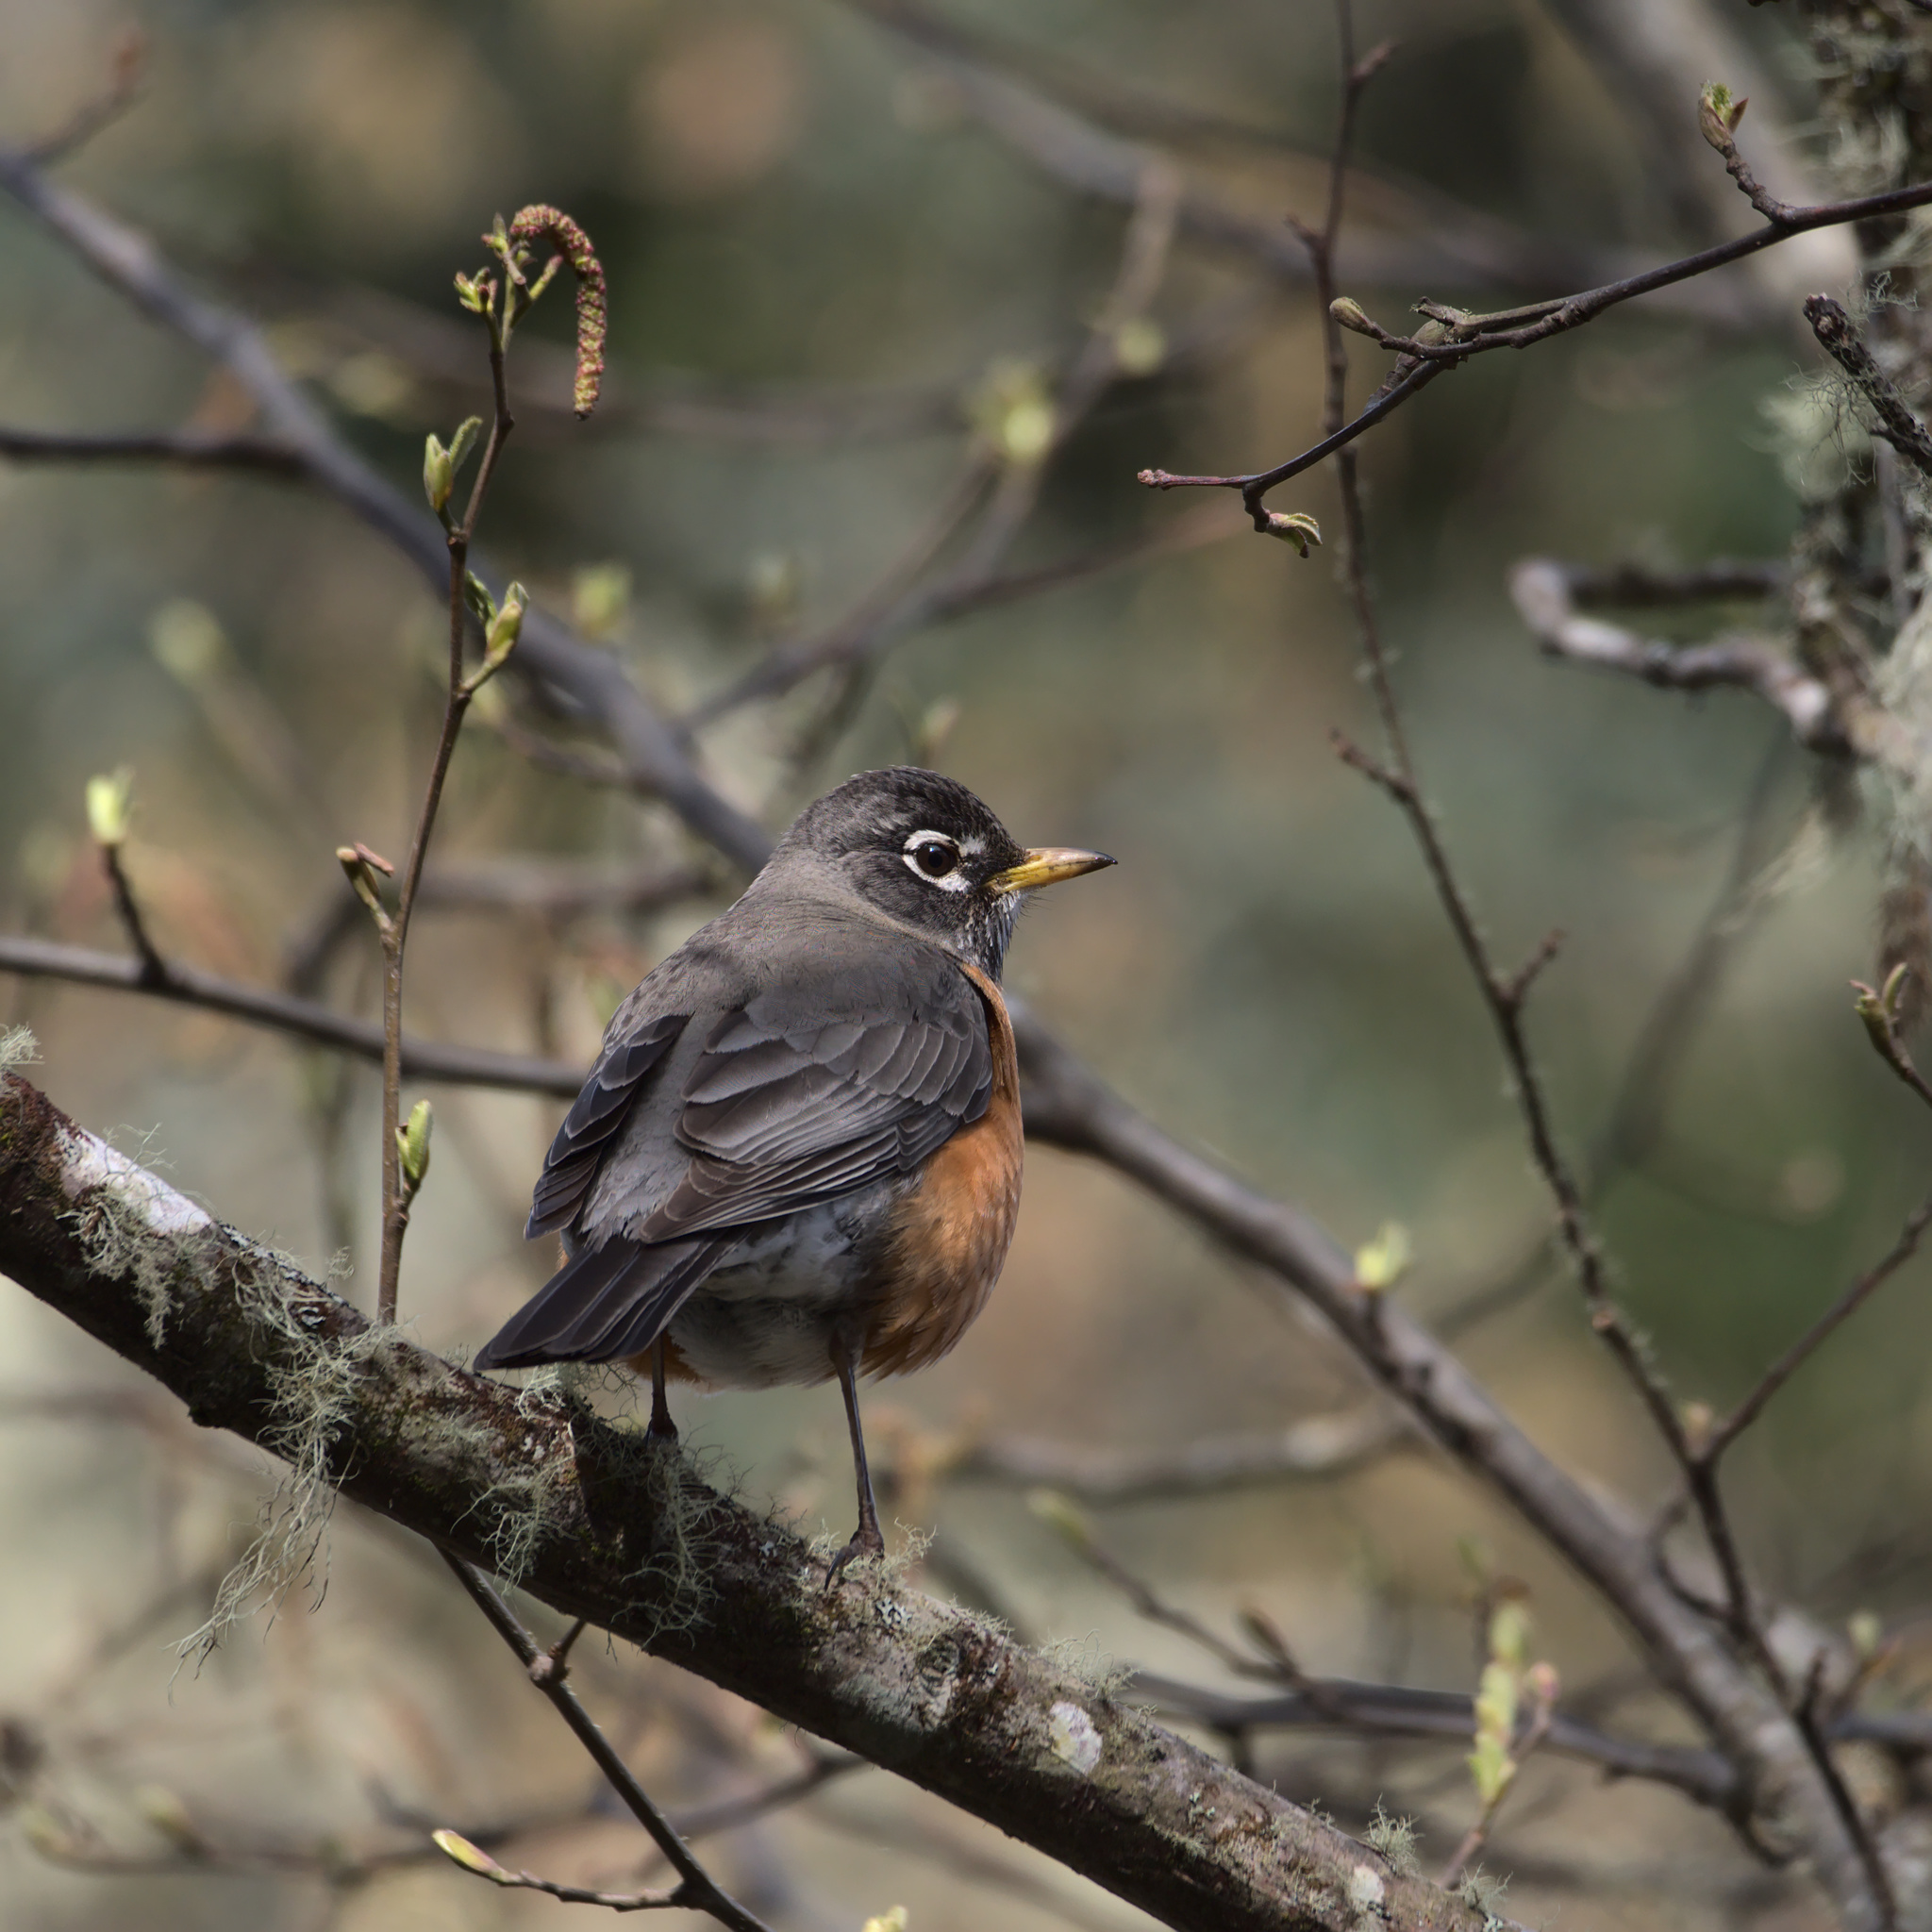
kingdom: Animalia
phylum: Chordata
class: Aves
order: Passeriformes
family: Turdidae
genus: Turdus
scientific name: Turdus migratorius
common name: American robin
